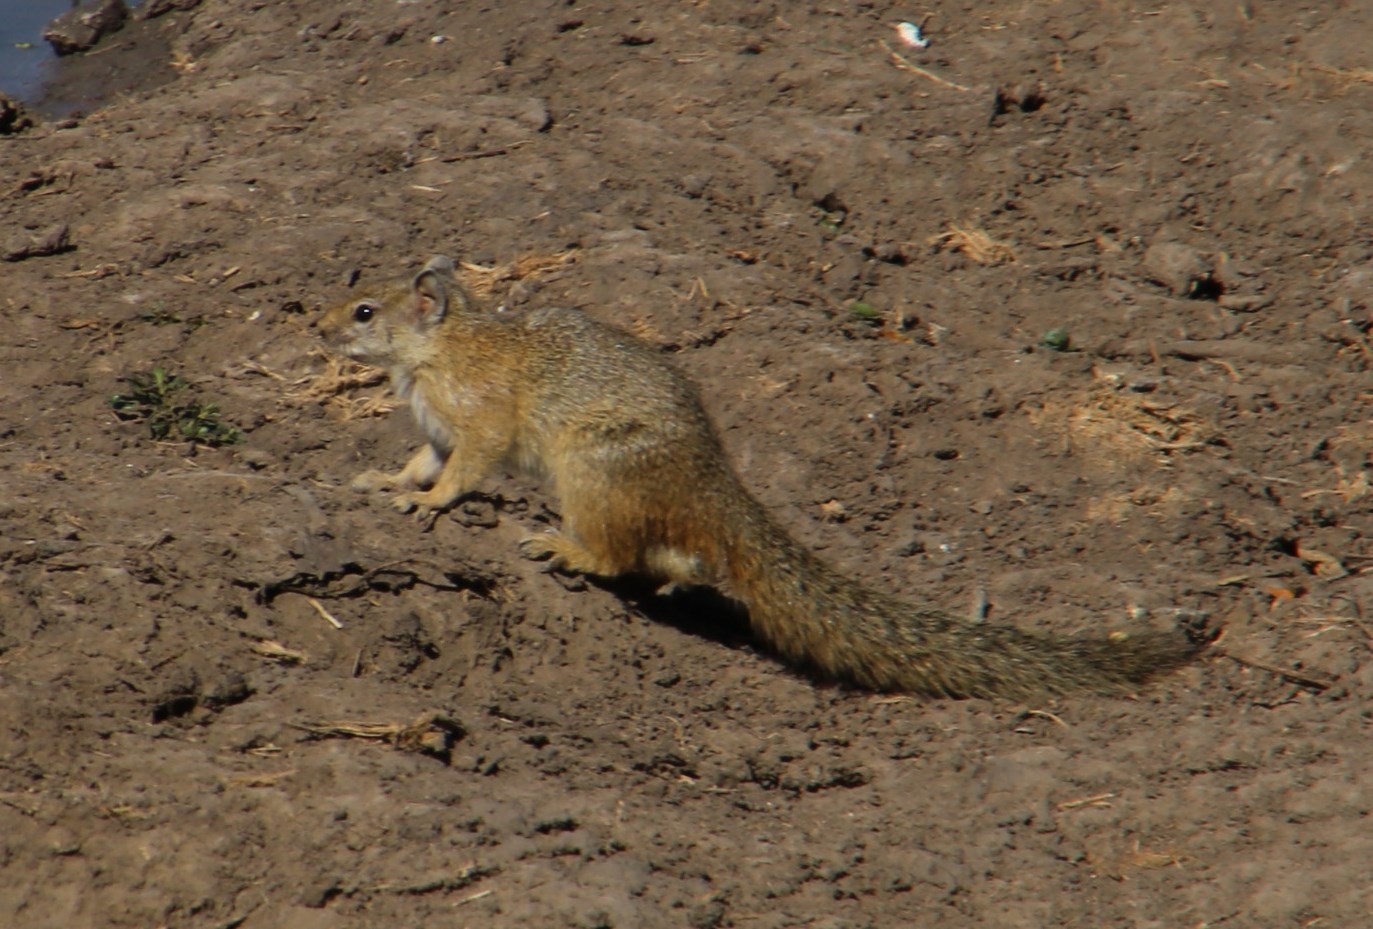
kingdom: Animalia
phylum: Chordata
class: Mammalia
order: Rodentia
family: Sciuridae
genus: Paraxerus
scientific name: Paraxerus cepapi
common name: Smith's bush squirrel
